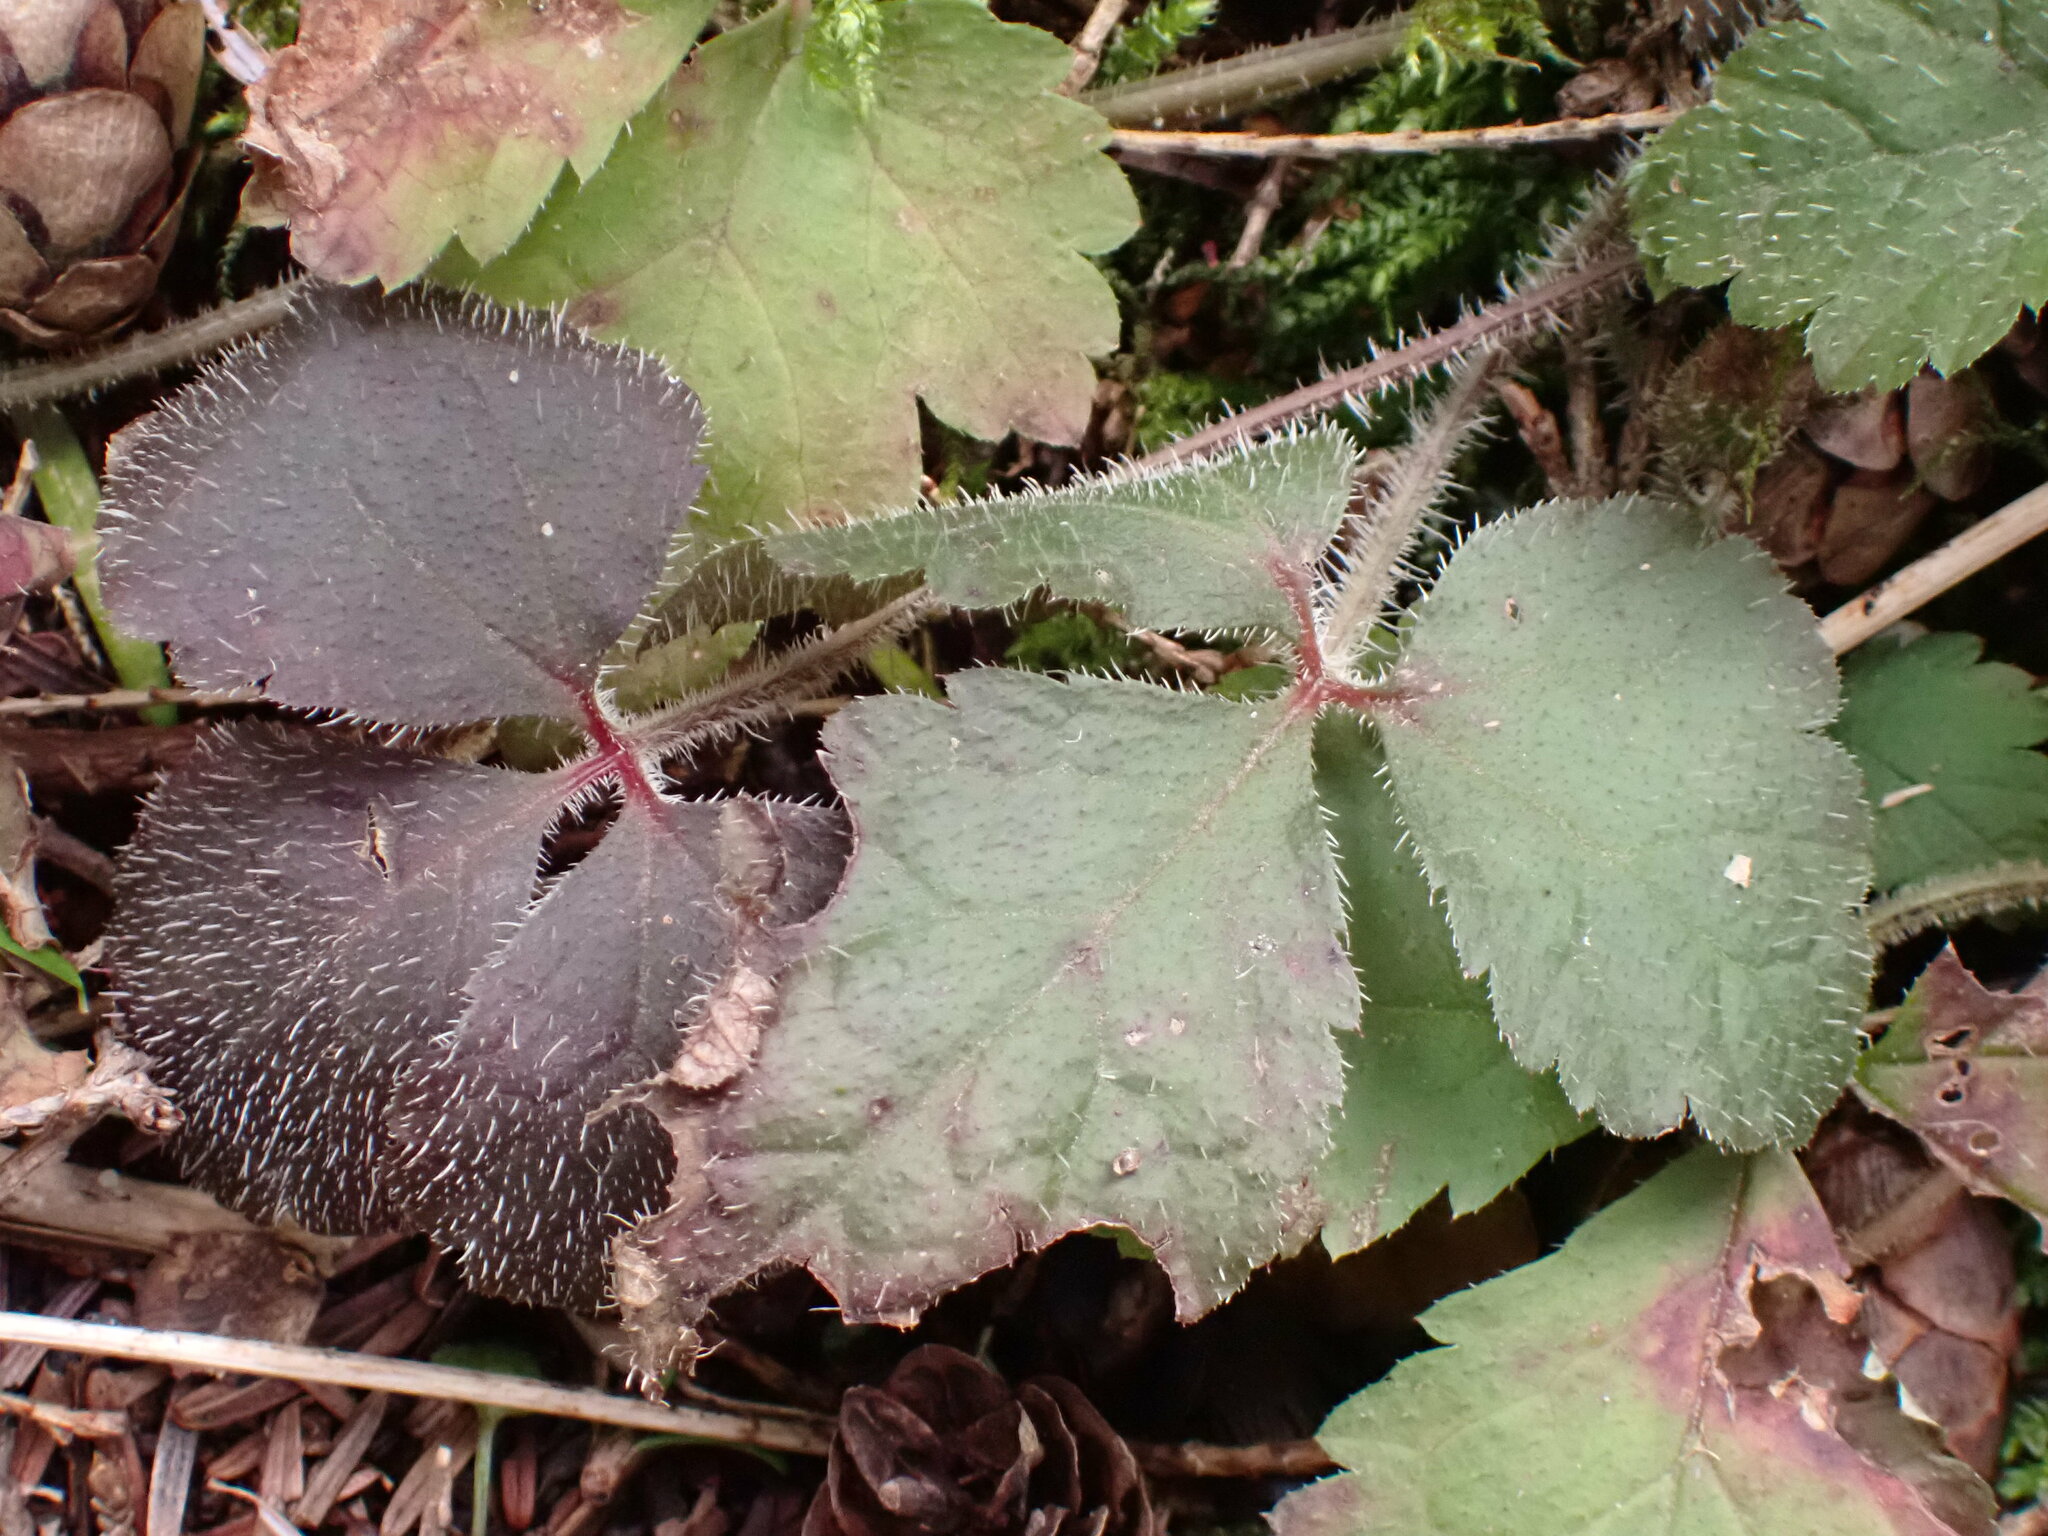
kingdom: Plantae
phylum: Tracheophyta
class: Magnoliopsida
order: Saxifragales
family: Saxifragaceae
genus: Tiarella
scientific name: Tiarella trifoliata
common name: Sugar-scoop
